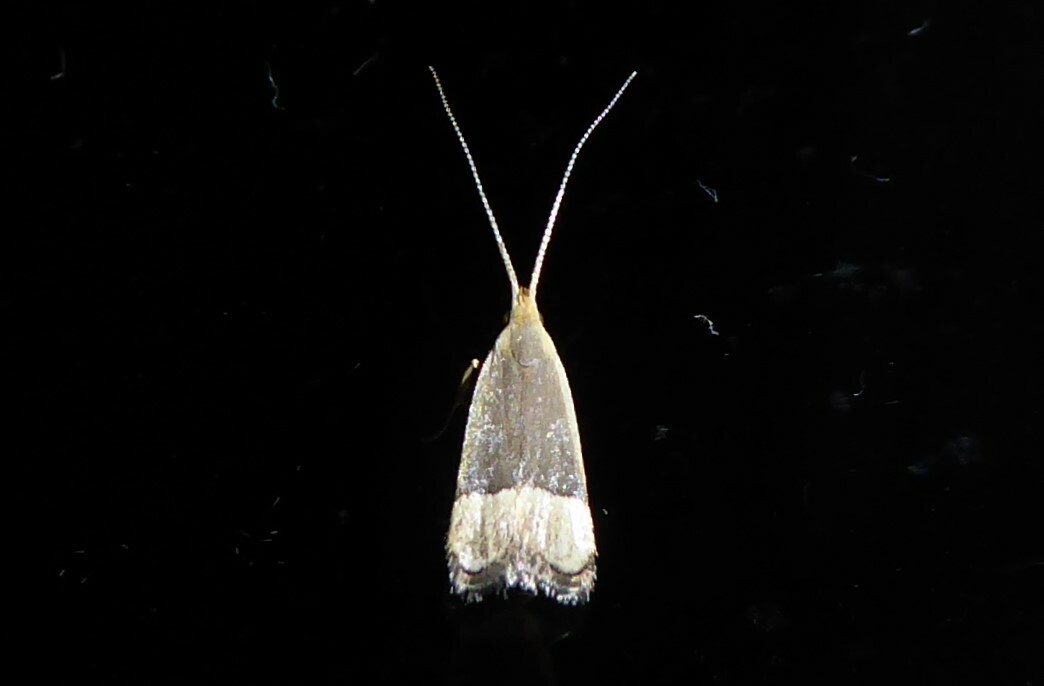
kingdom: Animalia
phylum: Arthropoda
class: Insecta
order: Lepidoptera
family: Lecithoceridae
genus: Sarisophora
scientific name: Sarisophora tenella
